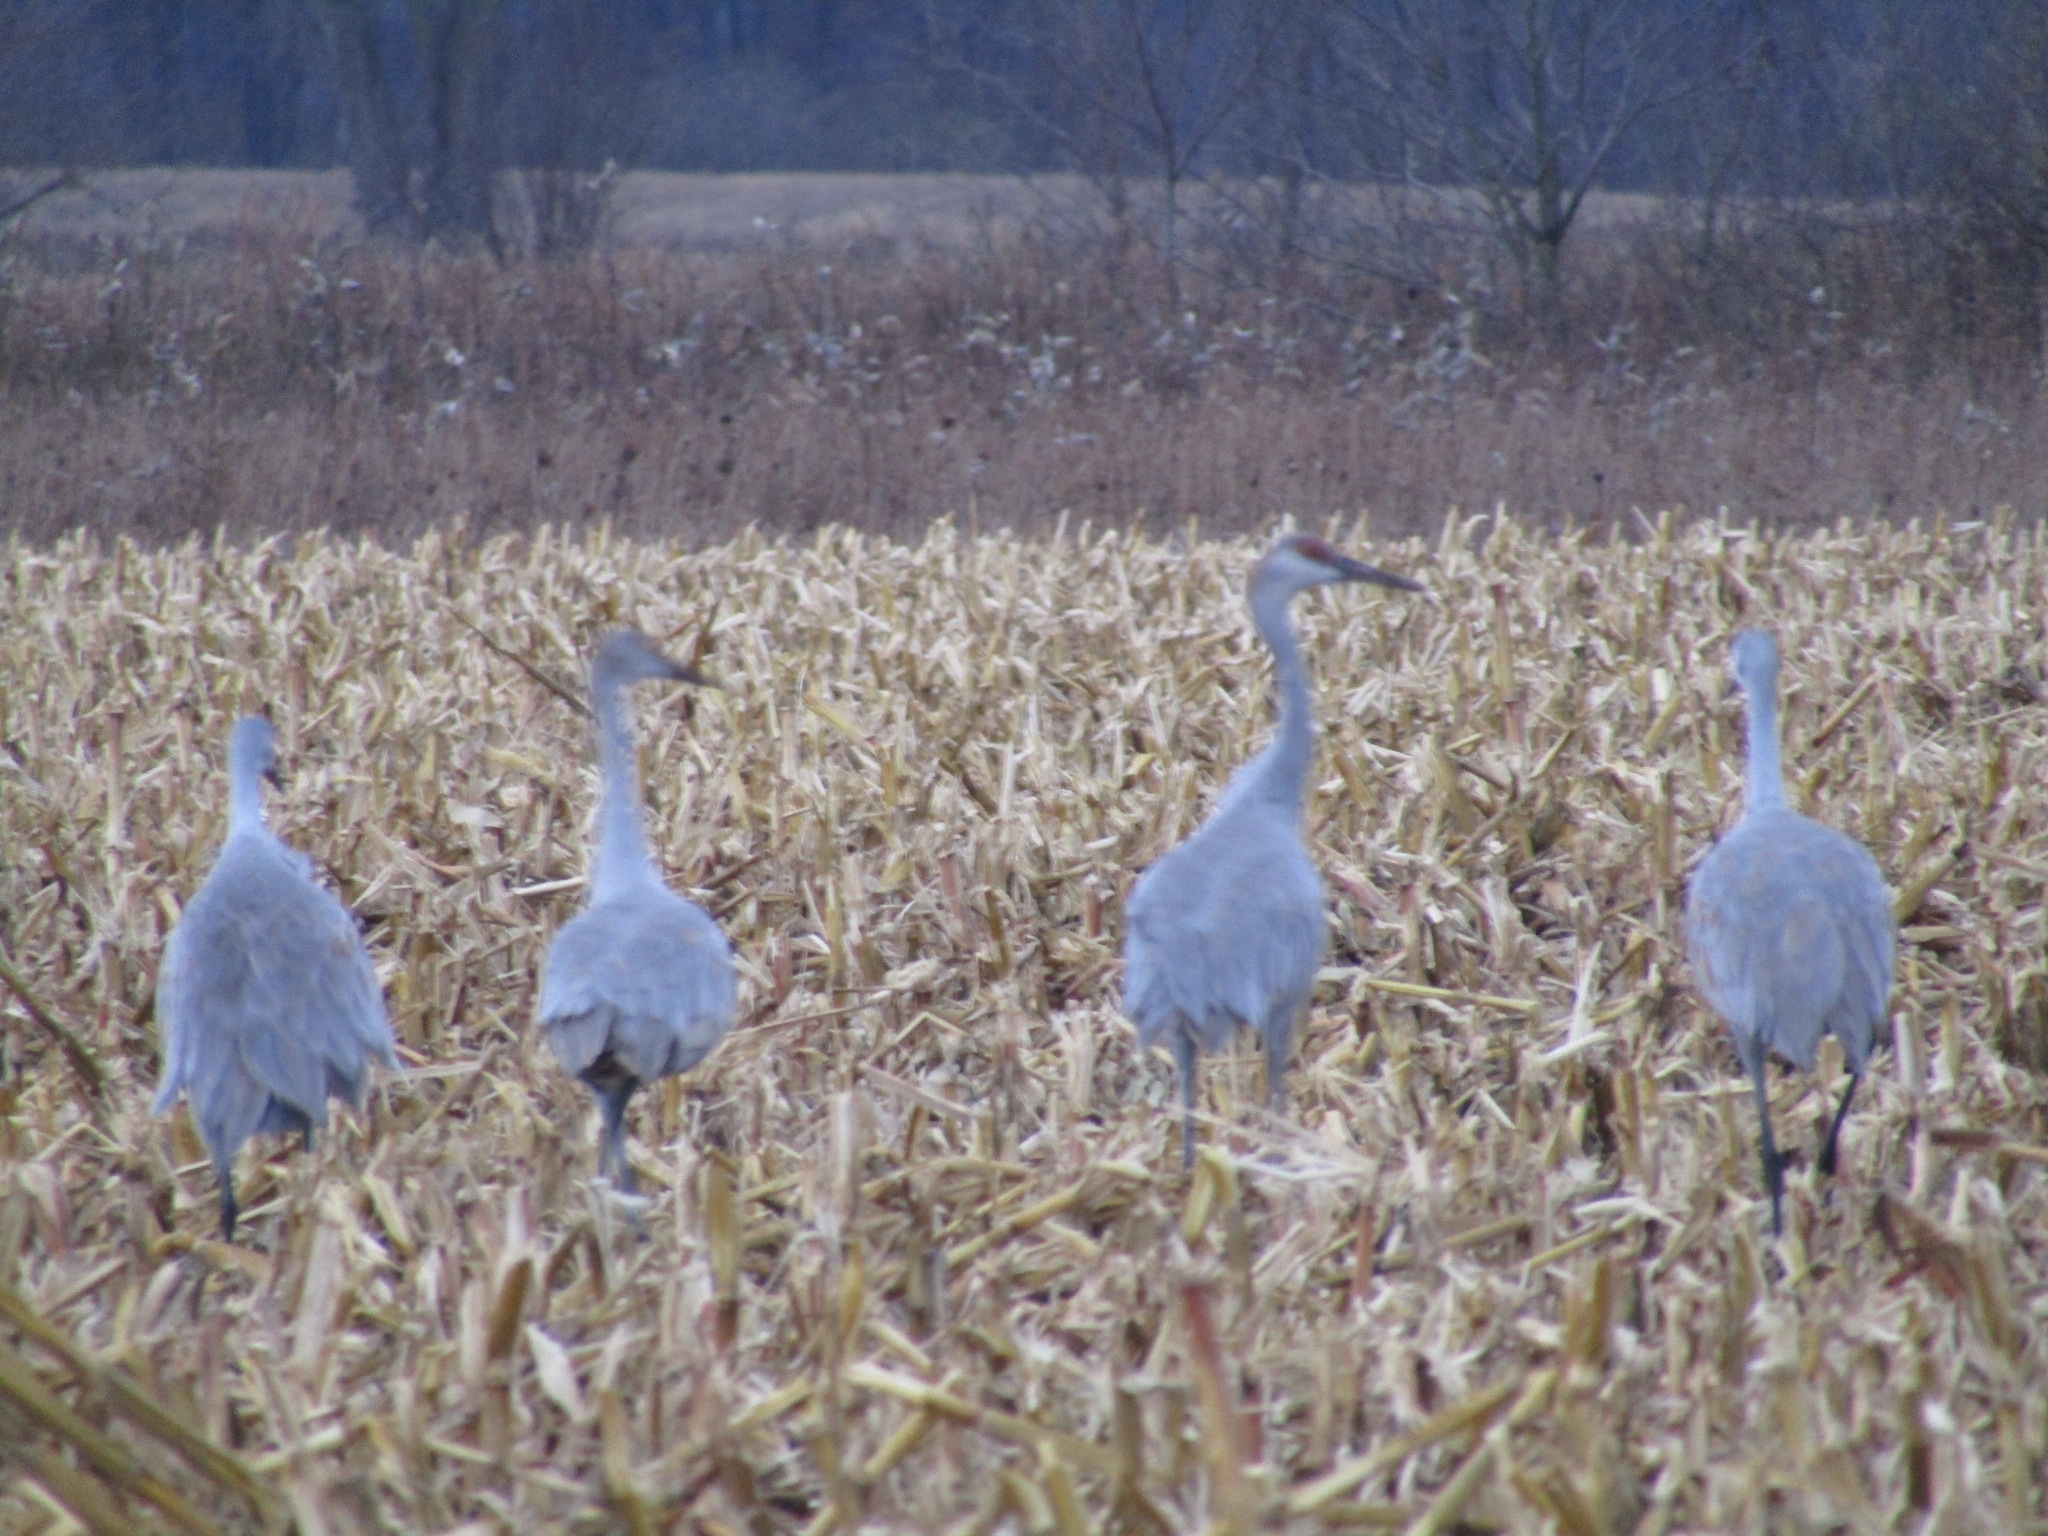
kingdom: Animalia
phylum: Chordata
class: Aves
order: Gruiformes
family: Gruidae
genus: Grus
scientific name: Grus canadensis
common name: Sandhill crane
